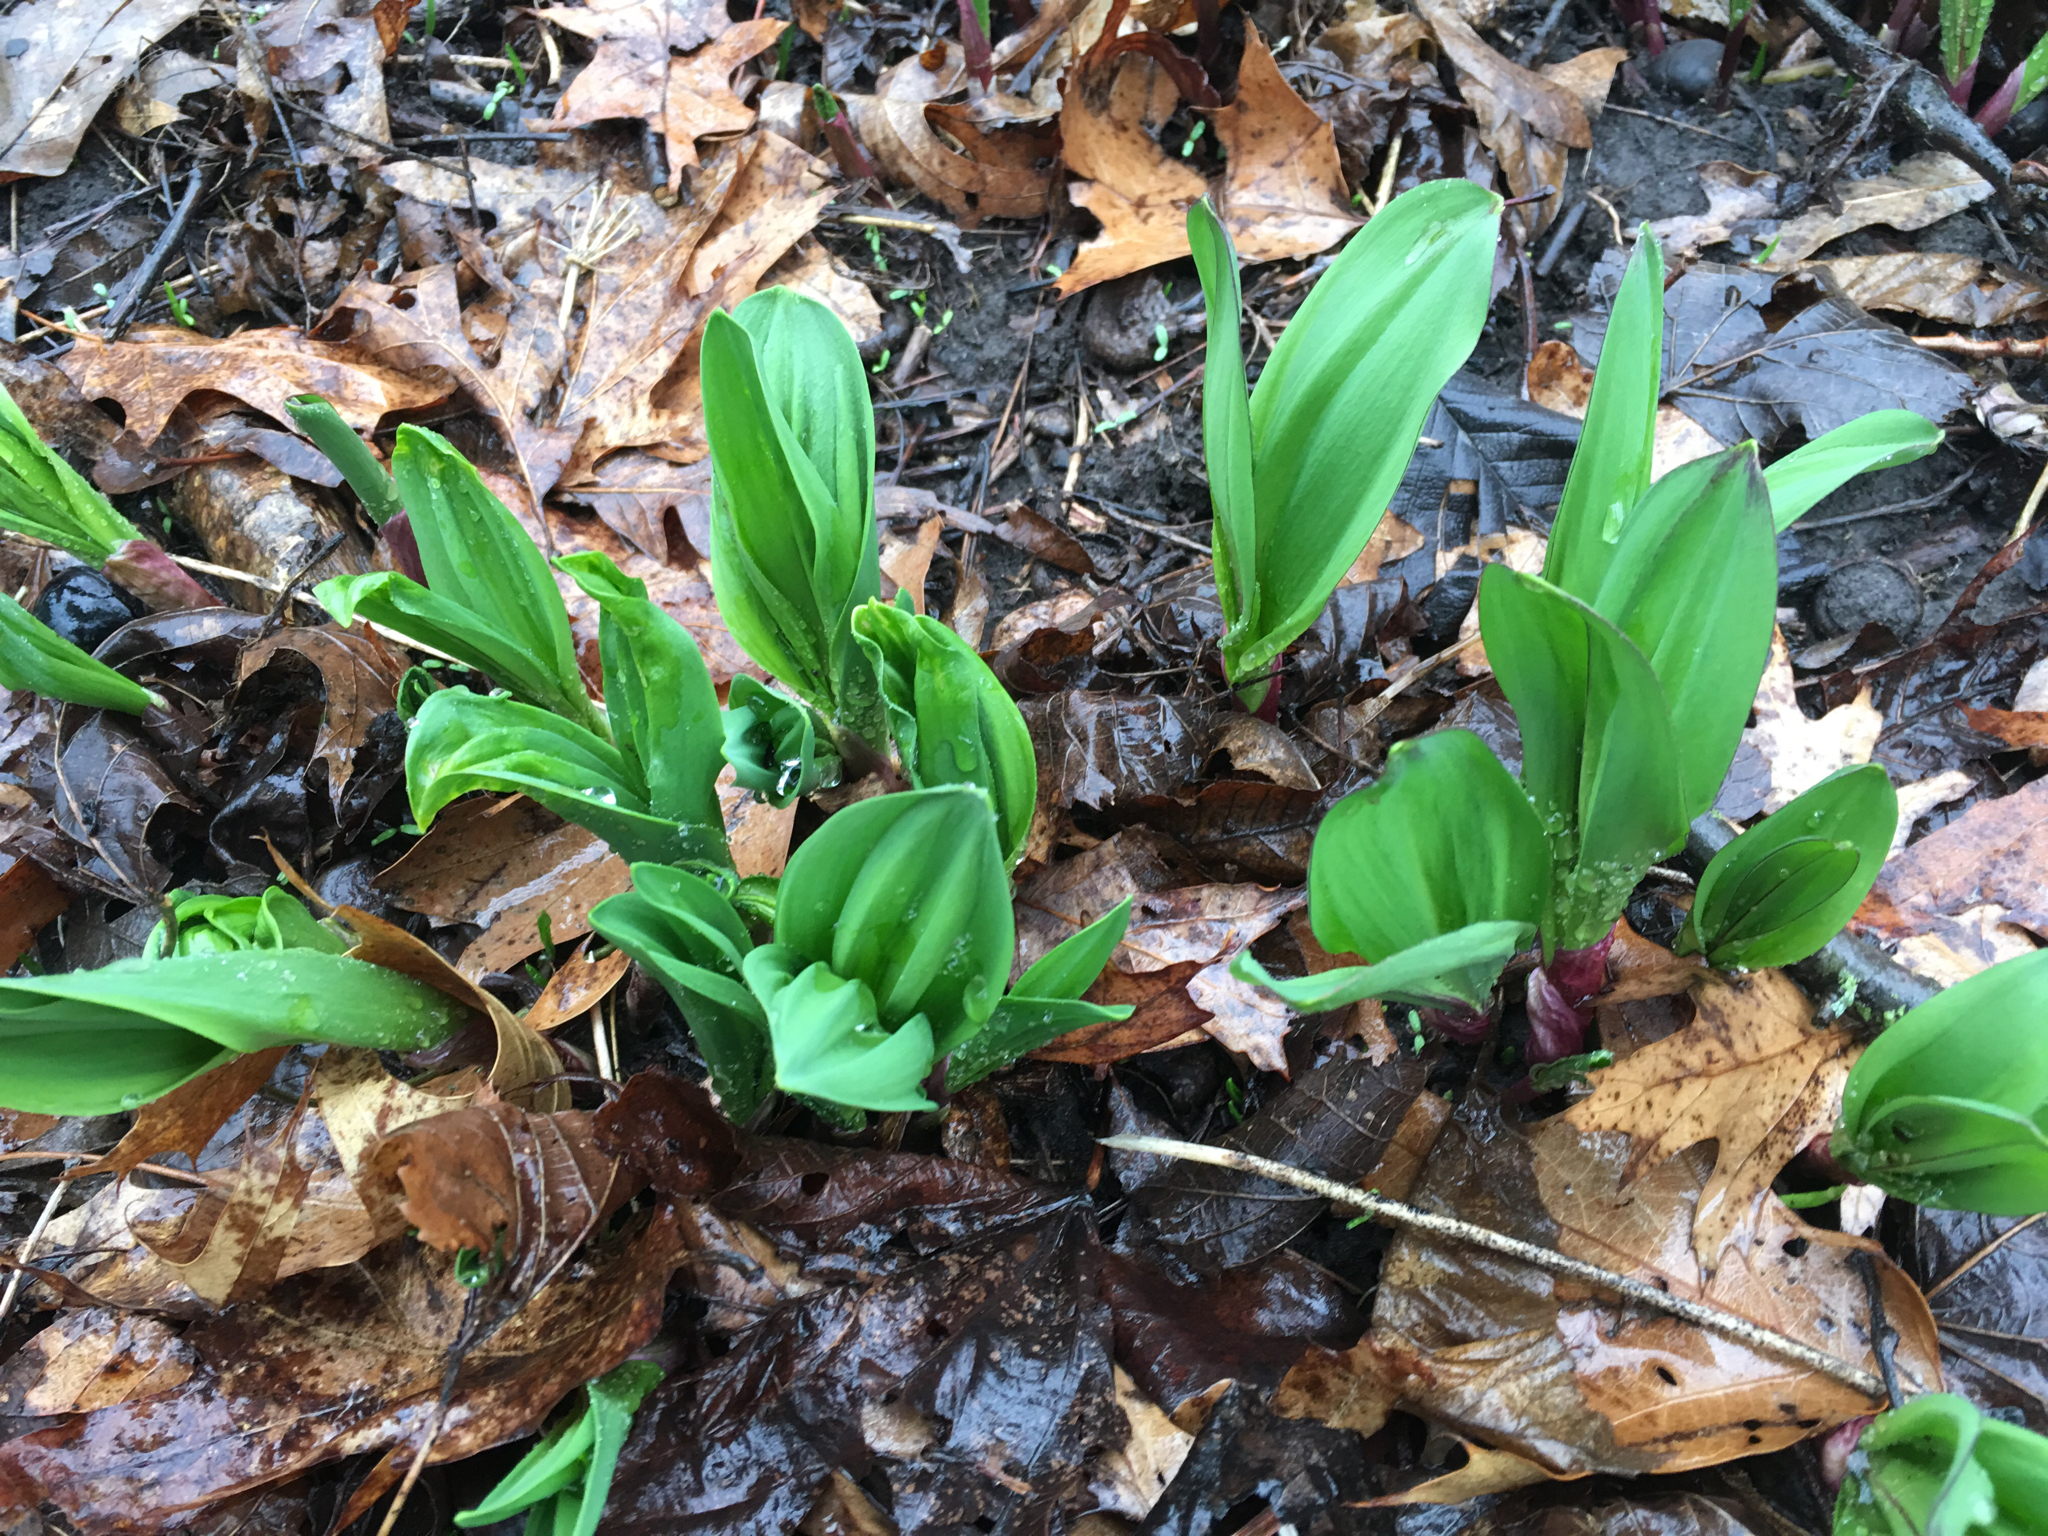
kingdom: Plantae
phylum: Tracheophyta
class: Liliopsida
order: Asparagales
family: Amaryllidaceae
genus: Allium
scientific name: Allium tricoccum
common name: Ramp
